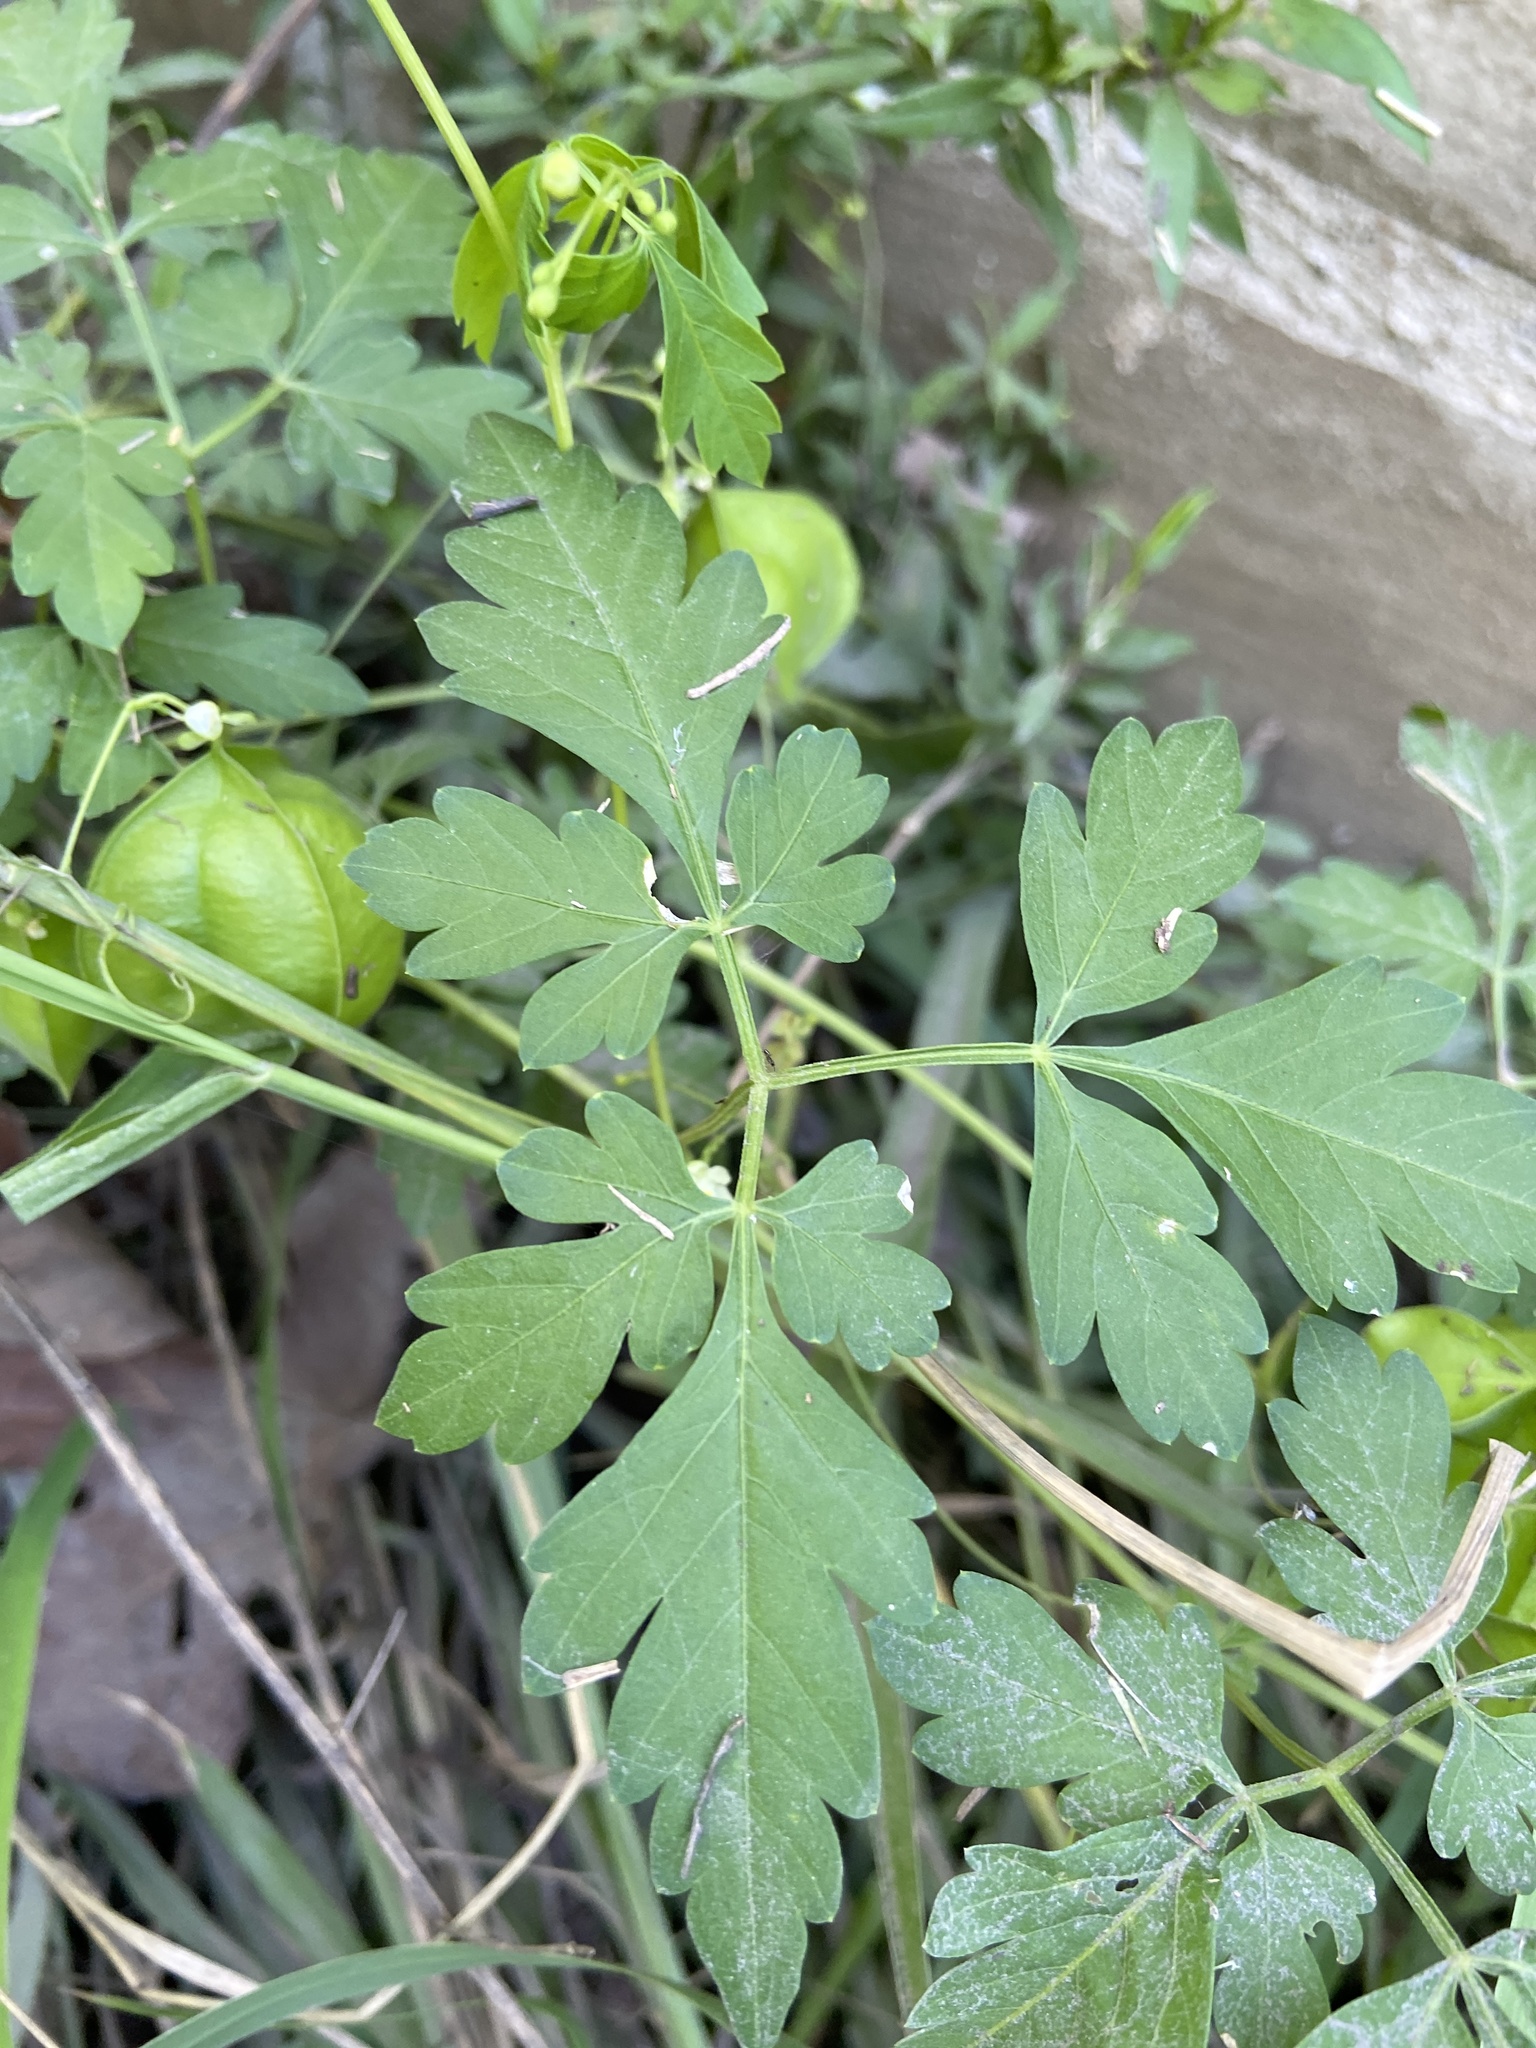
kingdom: Plantae
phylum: Tracheophyta
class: Magnoliopsida
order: Sapindales
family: Sapindaceae
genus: Cardiospermum
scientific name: Cardiospermum halicacabum
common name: Balloon vine
